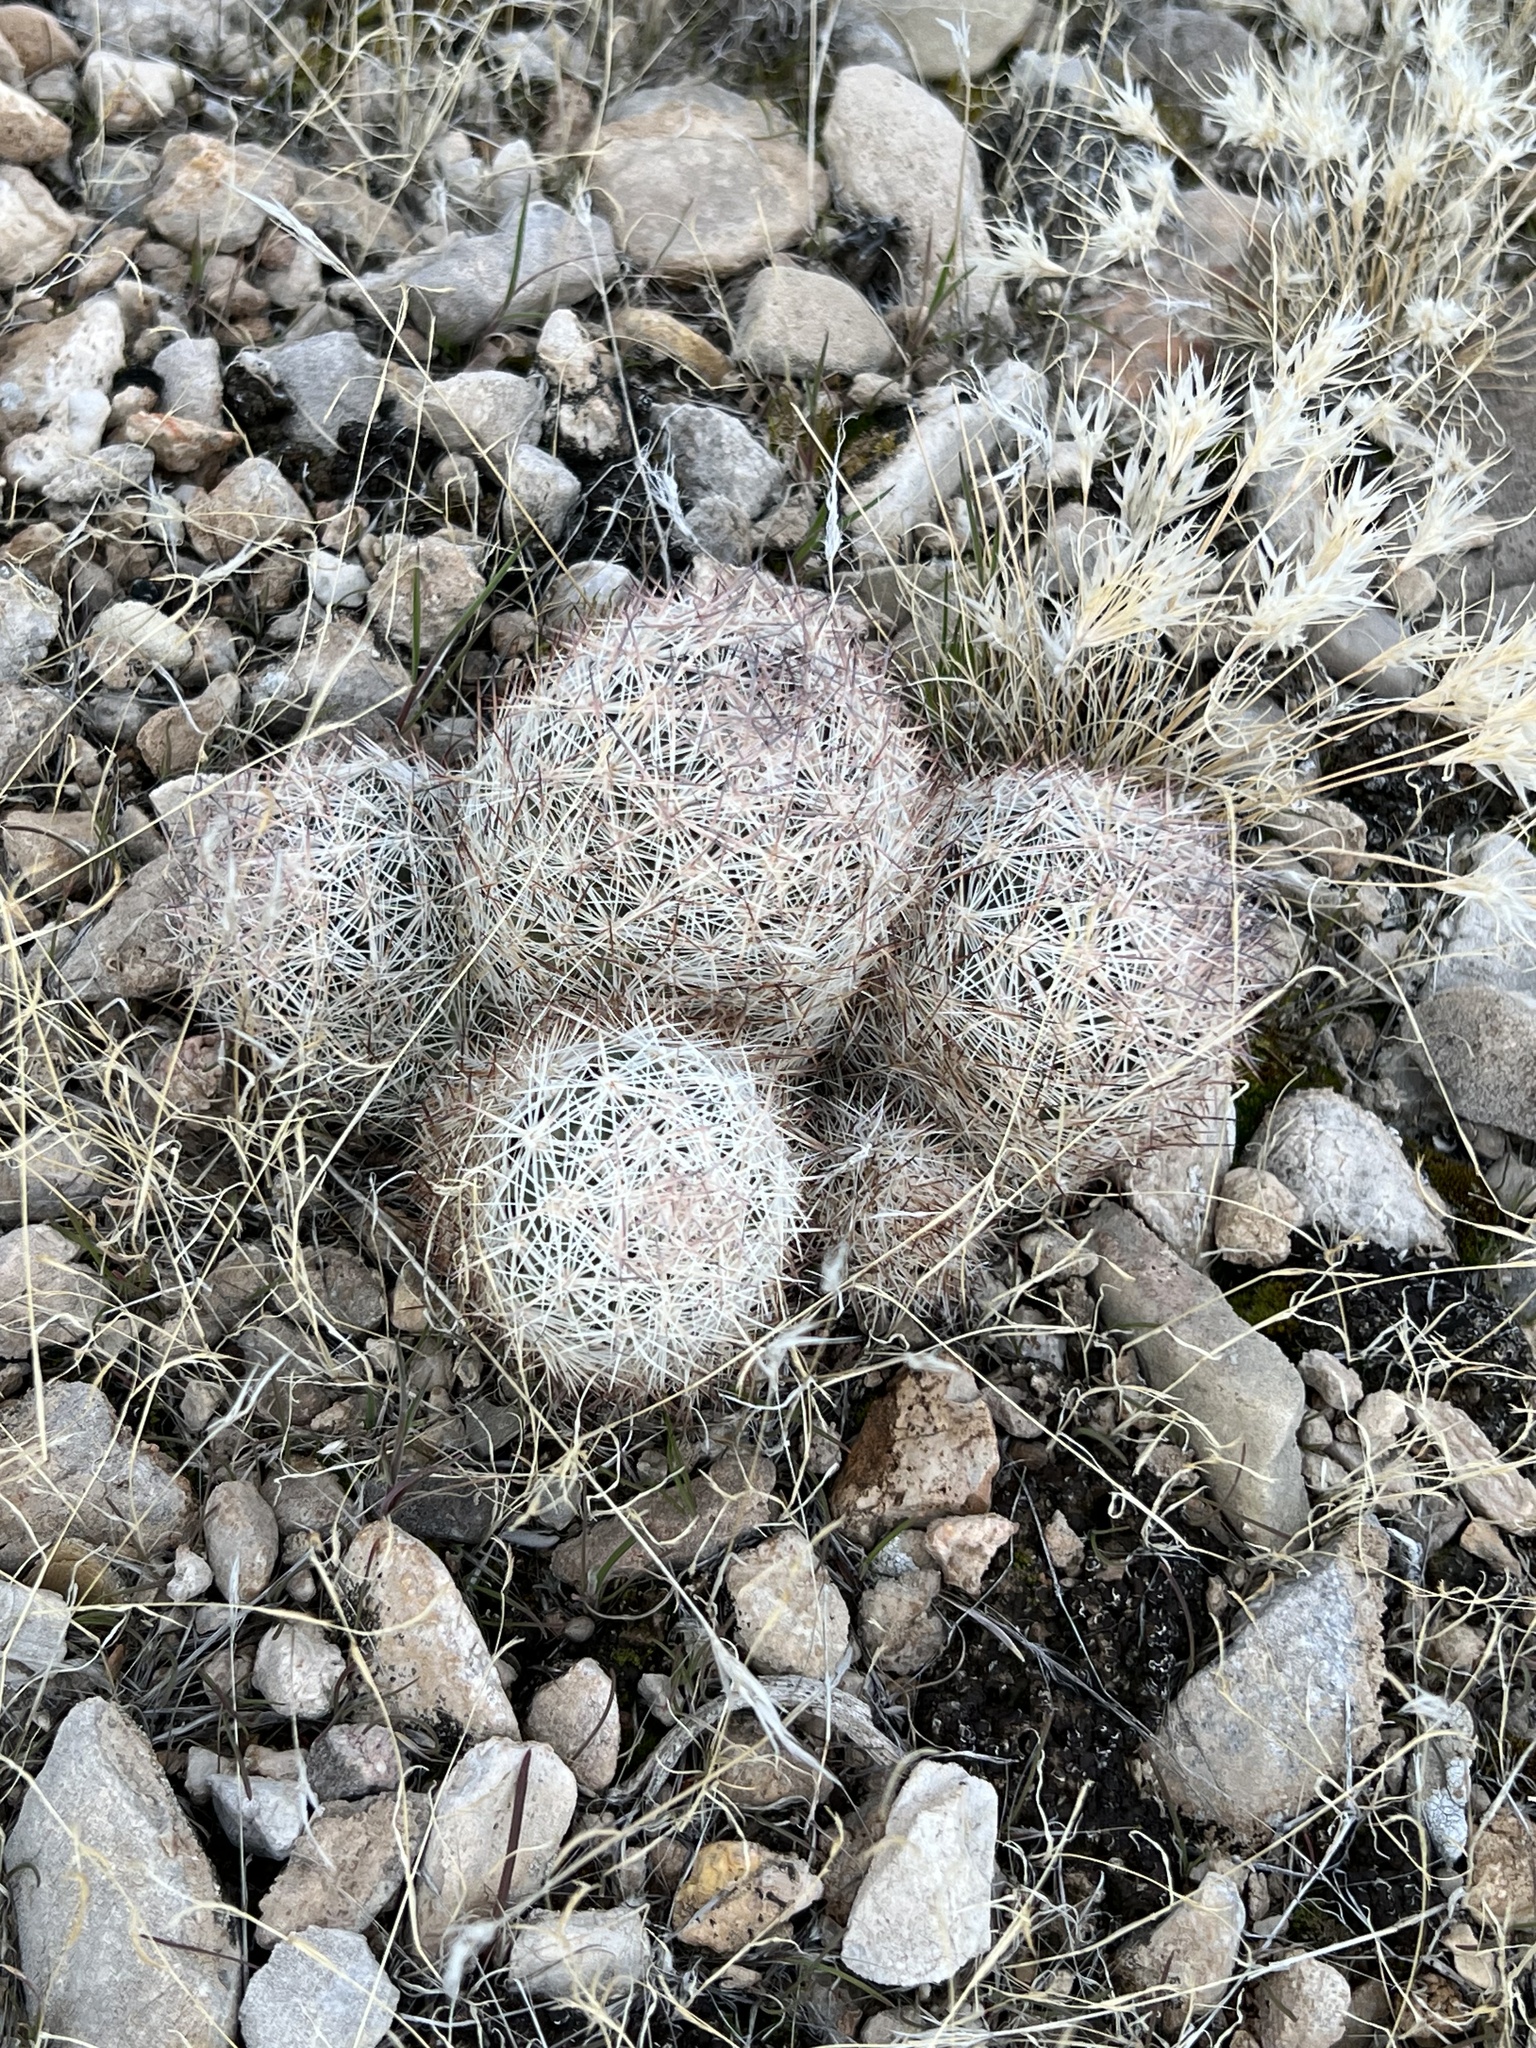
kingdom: Plantae
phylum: Tracheophyta
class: Magnoliopsida
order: Caryophyllales
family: Cactaceae
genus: Pelecyphora
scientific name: Pelecyphora dasyacantha
